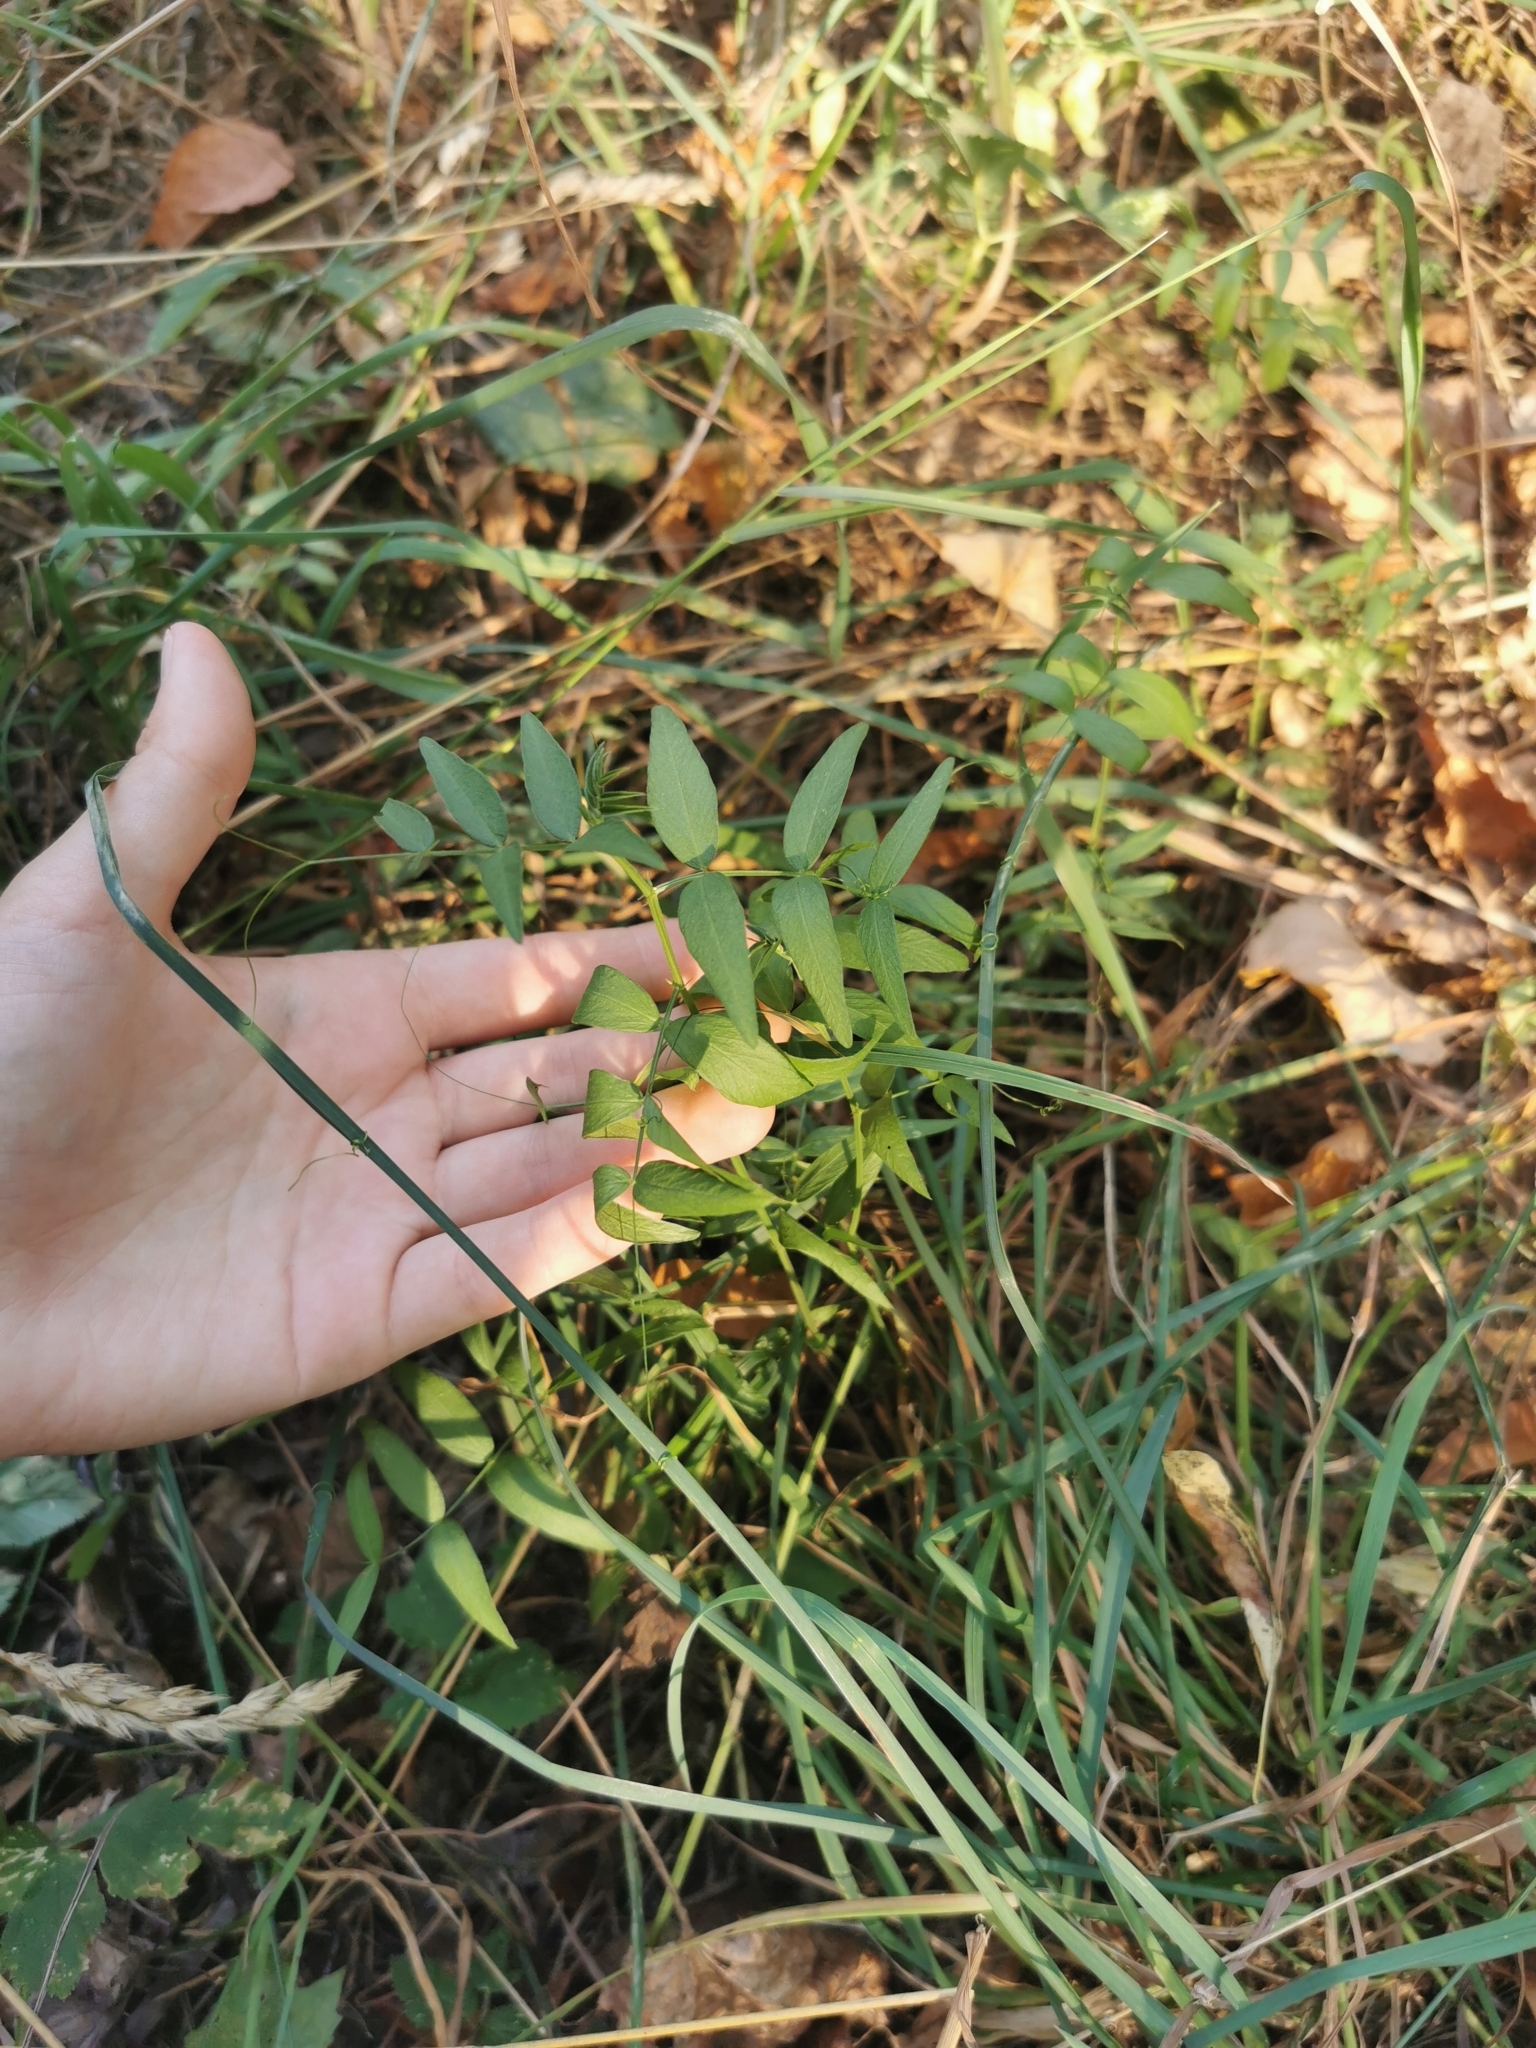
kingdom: Plantae
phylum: Tracheophyta
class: Magnoliopsida
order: Fabales
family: Fabaceae
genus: Vicia
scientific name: Vicia sepium
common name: Bush vetch
